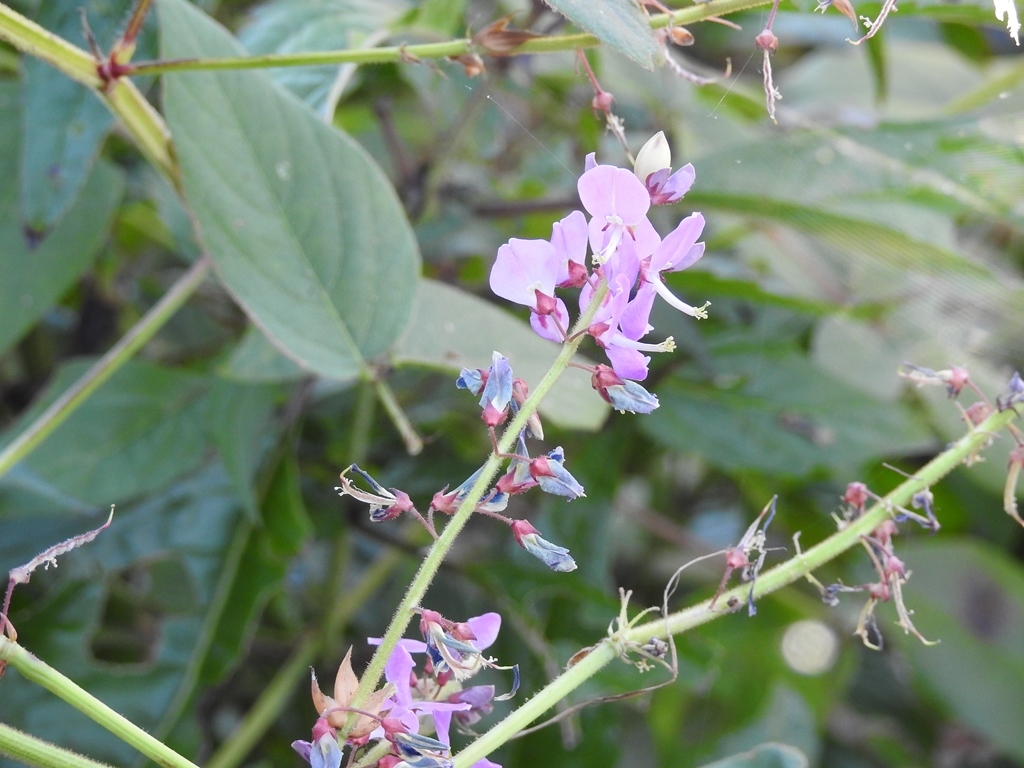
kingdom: Plantae
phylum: Tracheophyta
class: Magnoliopsida
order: Fabales
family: Fabaceae
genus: Grona
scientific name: Grona adscendens
